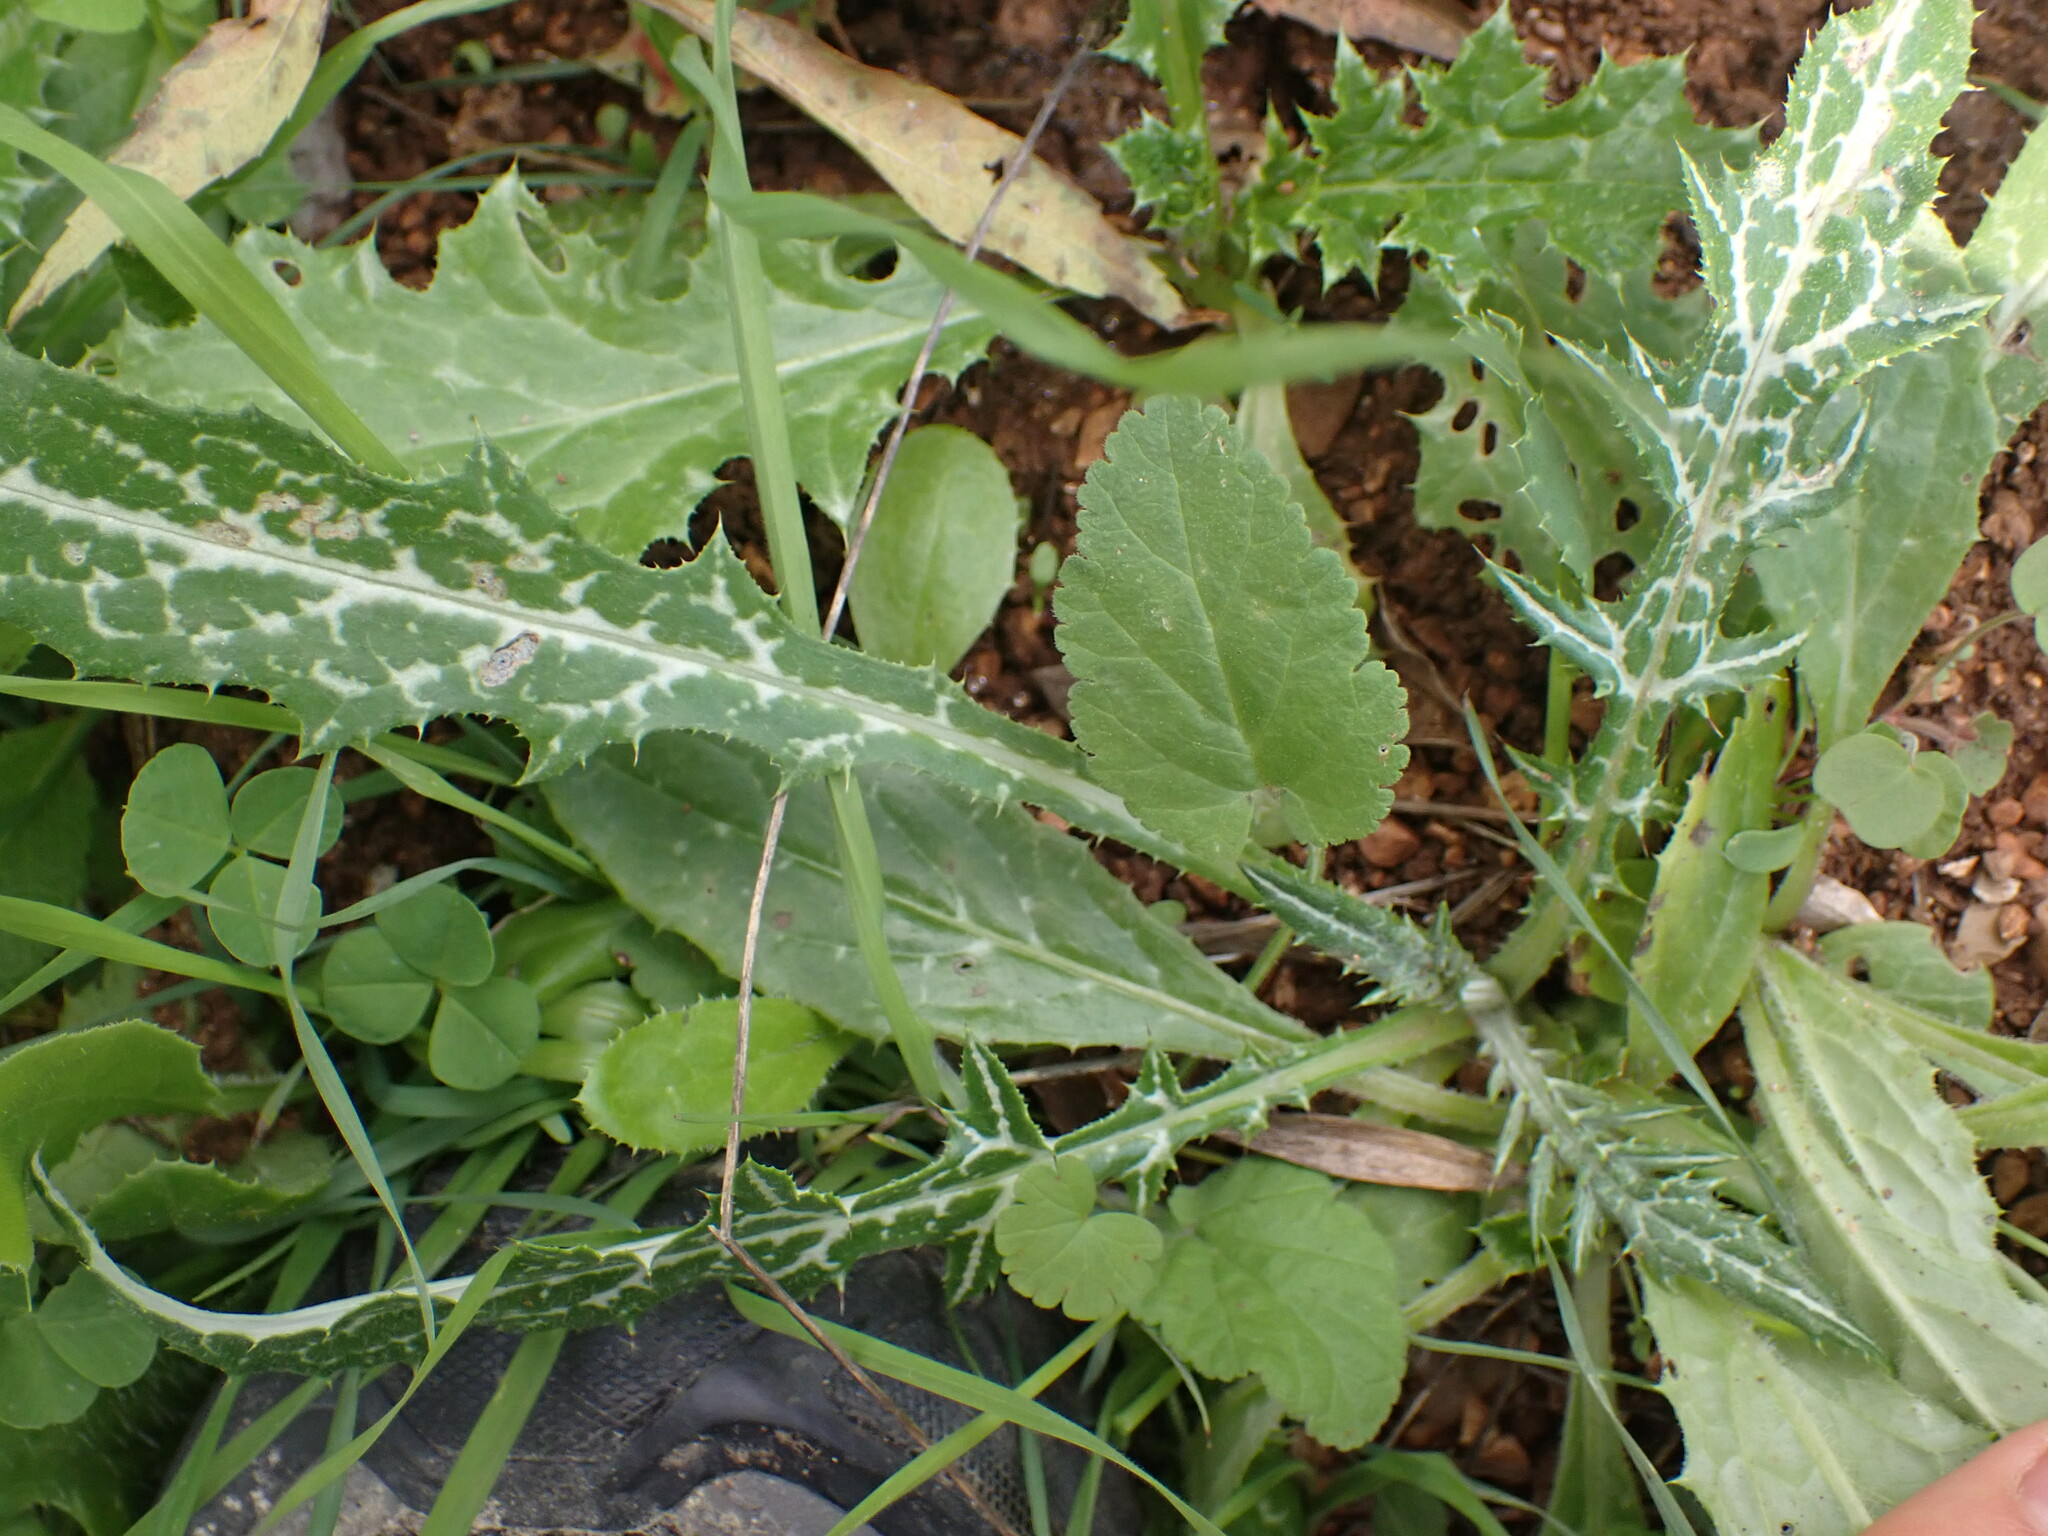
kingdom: Plantae
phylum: Tracheophyta
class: Magnoliopsida
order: Asterales
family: Asteraceae
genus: Galactites
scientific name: Galactites tomentosa
